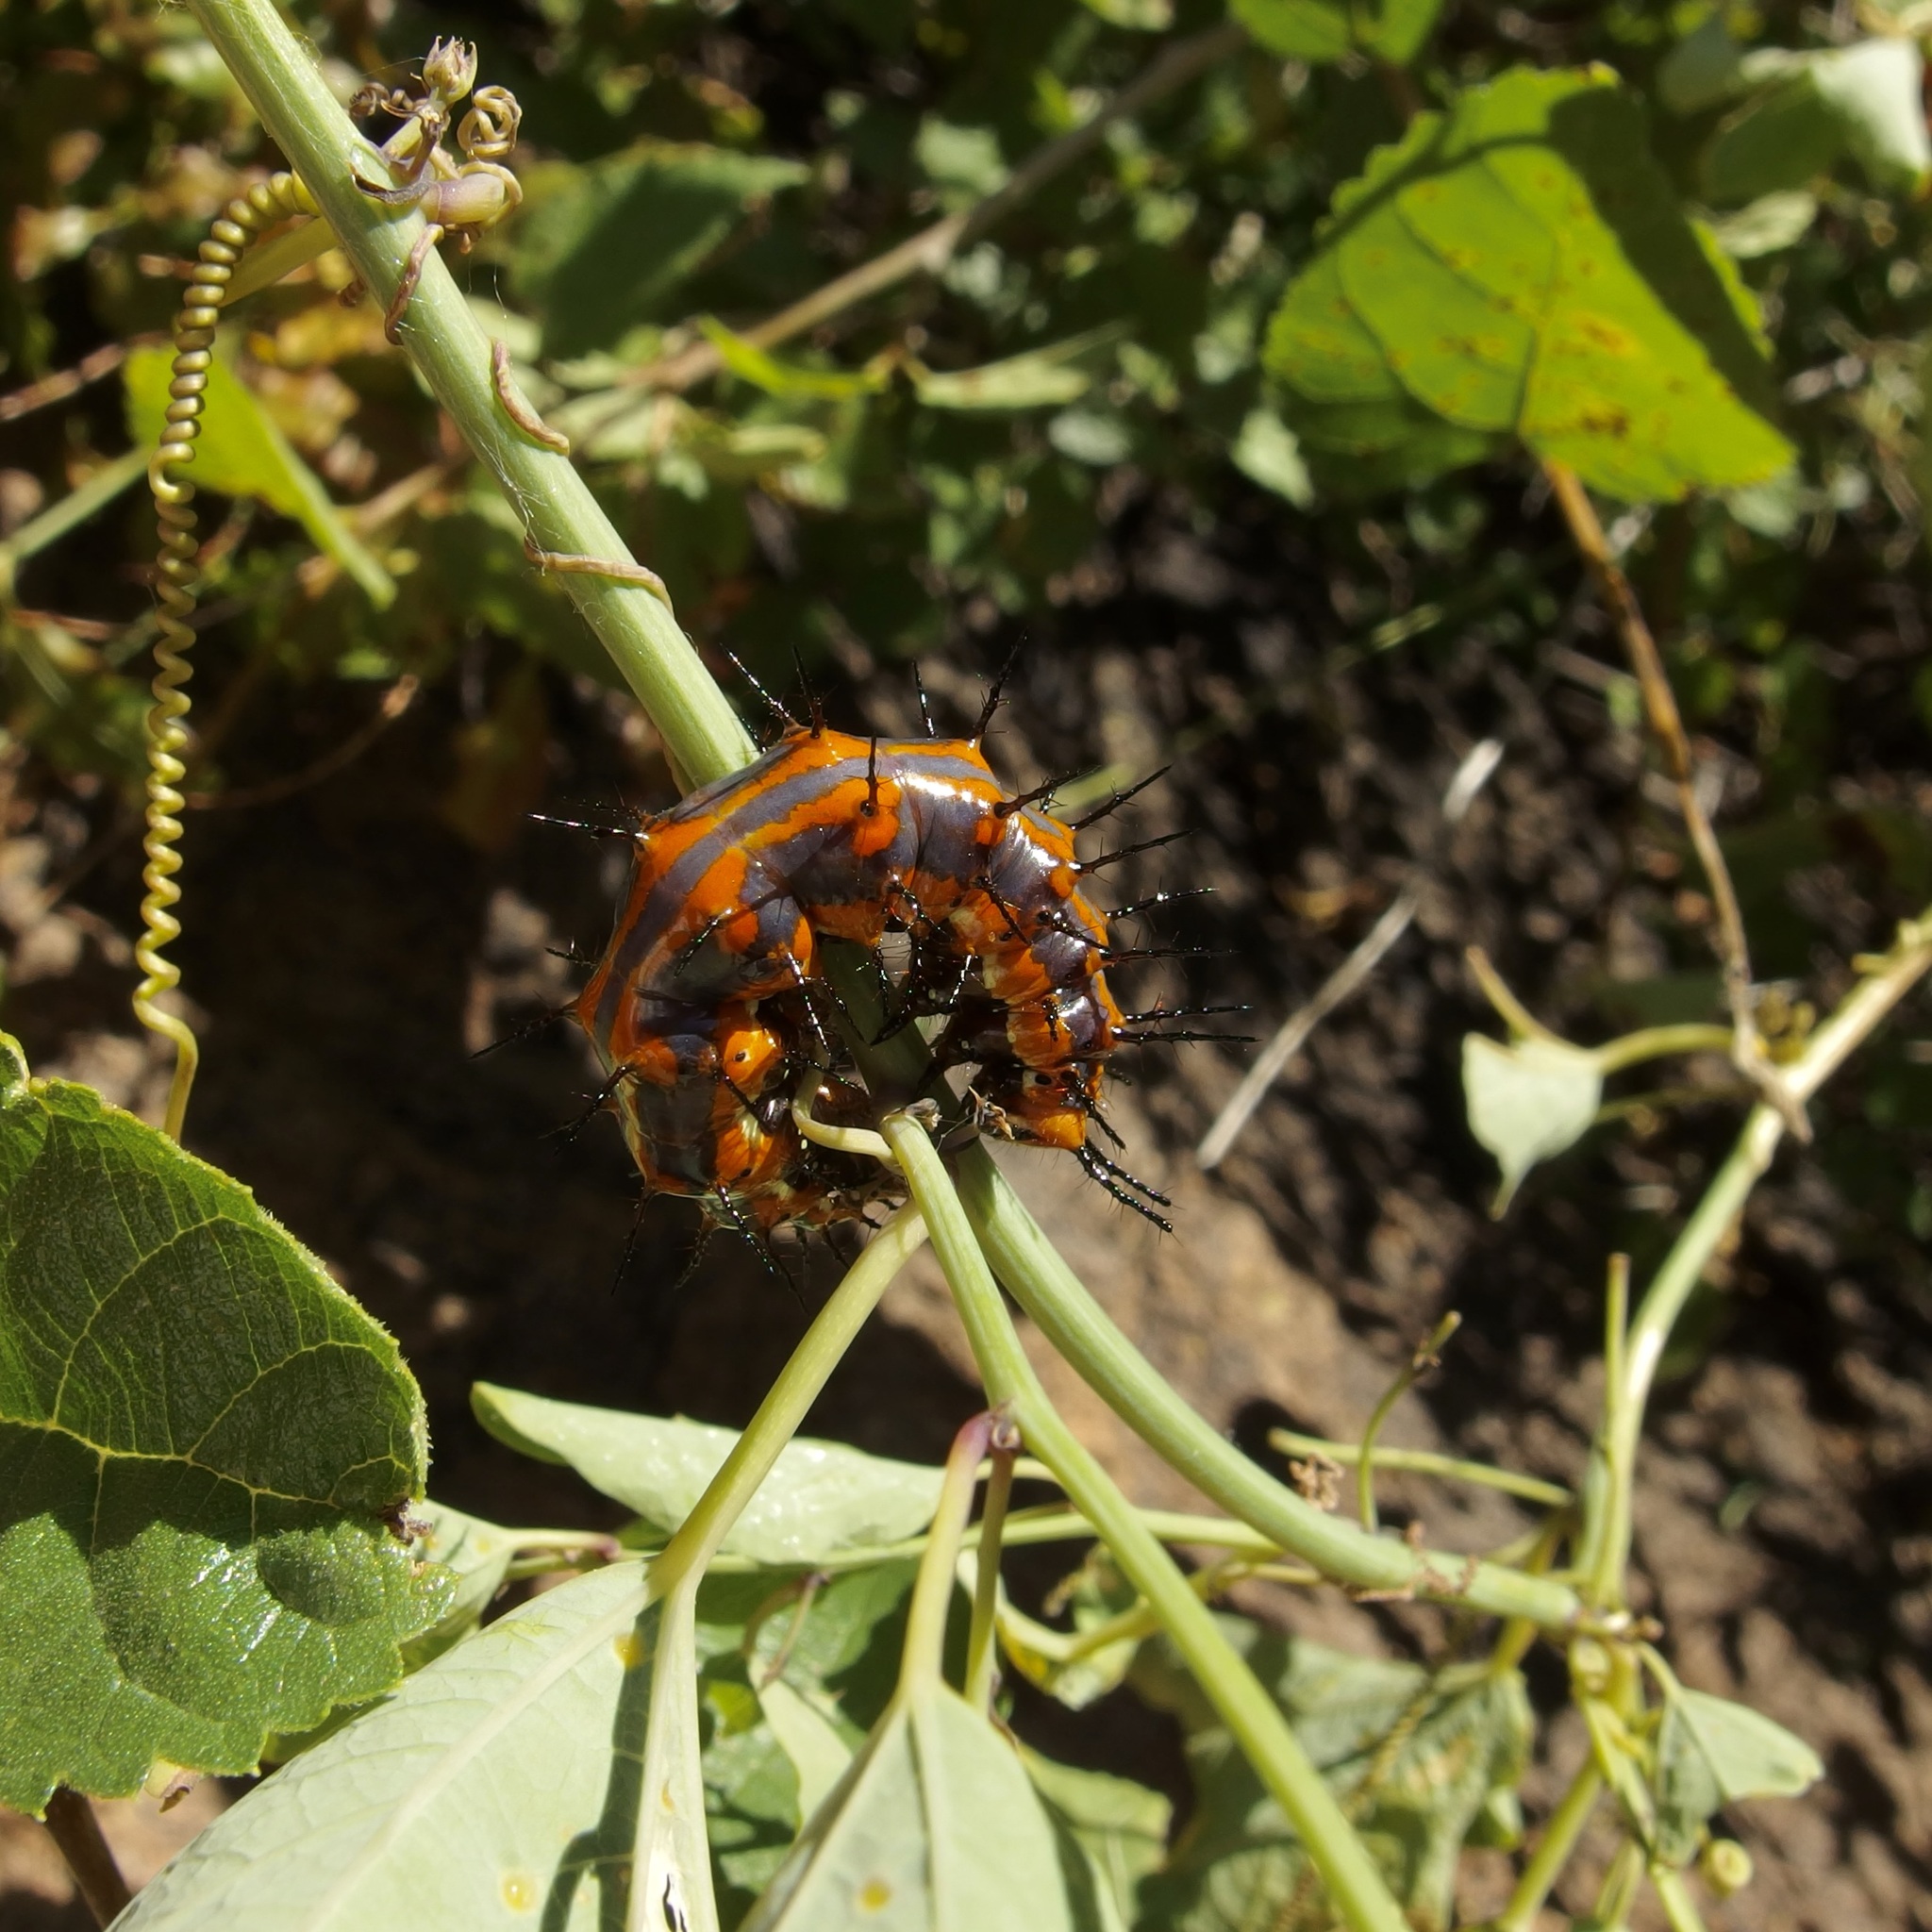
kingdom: Animalia
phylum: Arthropoda
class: Insecta
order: Lepidoptera
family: Nymphalidae
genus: Dione
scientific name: Dione vanillae
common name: Gulf fritillary
